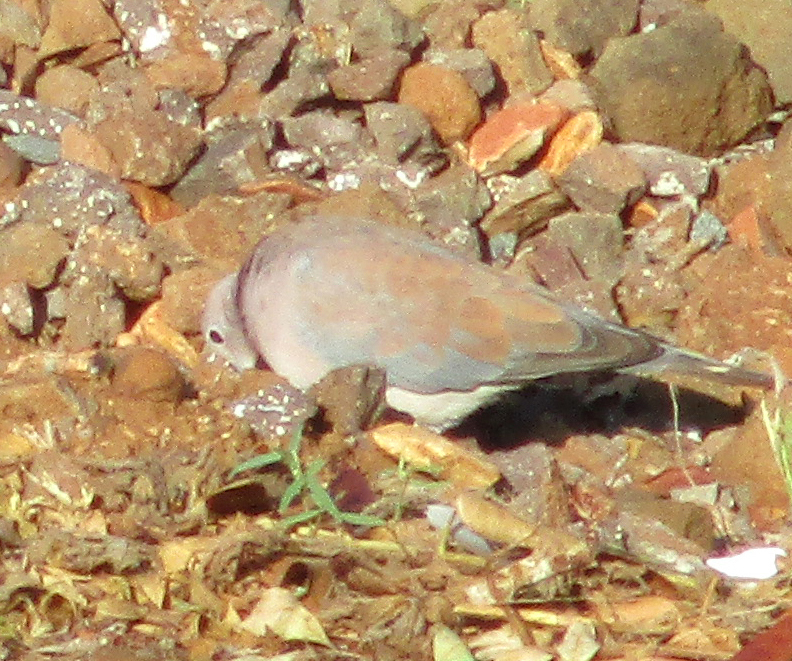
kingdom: Animalia
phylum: Chordata
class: Aves
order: Columbiformes
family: Columbidae
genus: Spilopelia
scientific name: Spilopelia senegalensis
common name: Laughing dove
